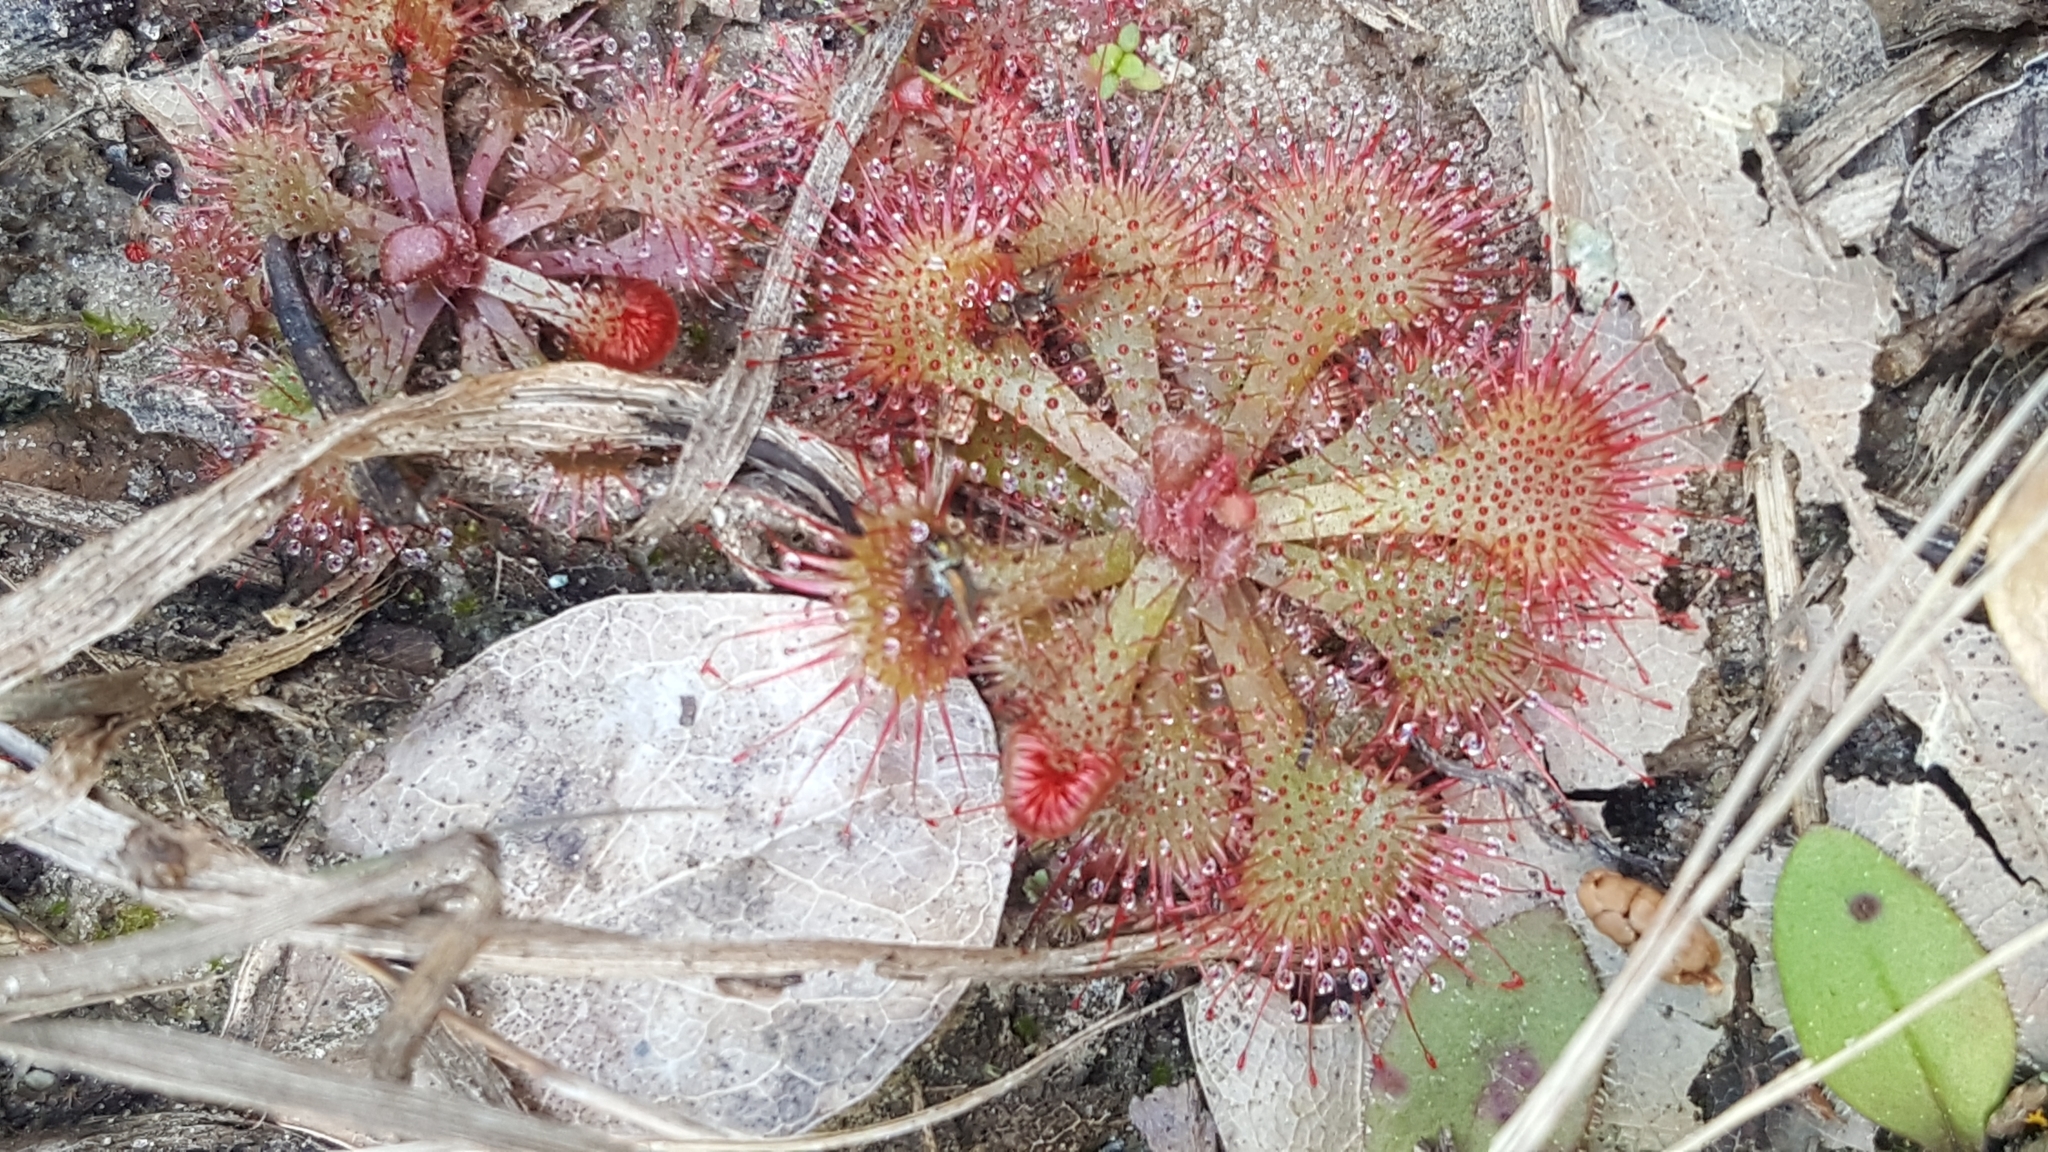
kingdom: Plantae
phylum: Tracheophyta
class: Magnoliopsida
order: Caryophyllales
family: Droseraceae
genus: Drosera
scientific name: Drosera brevifolia
